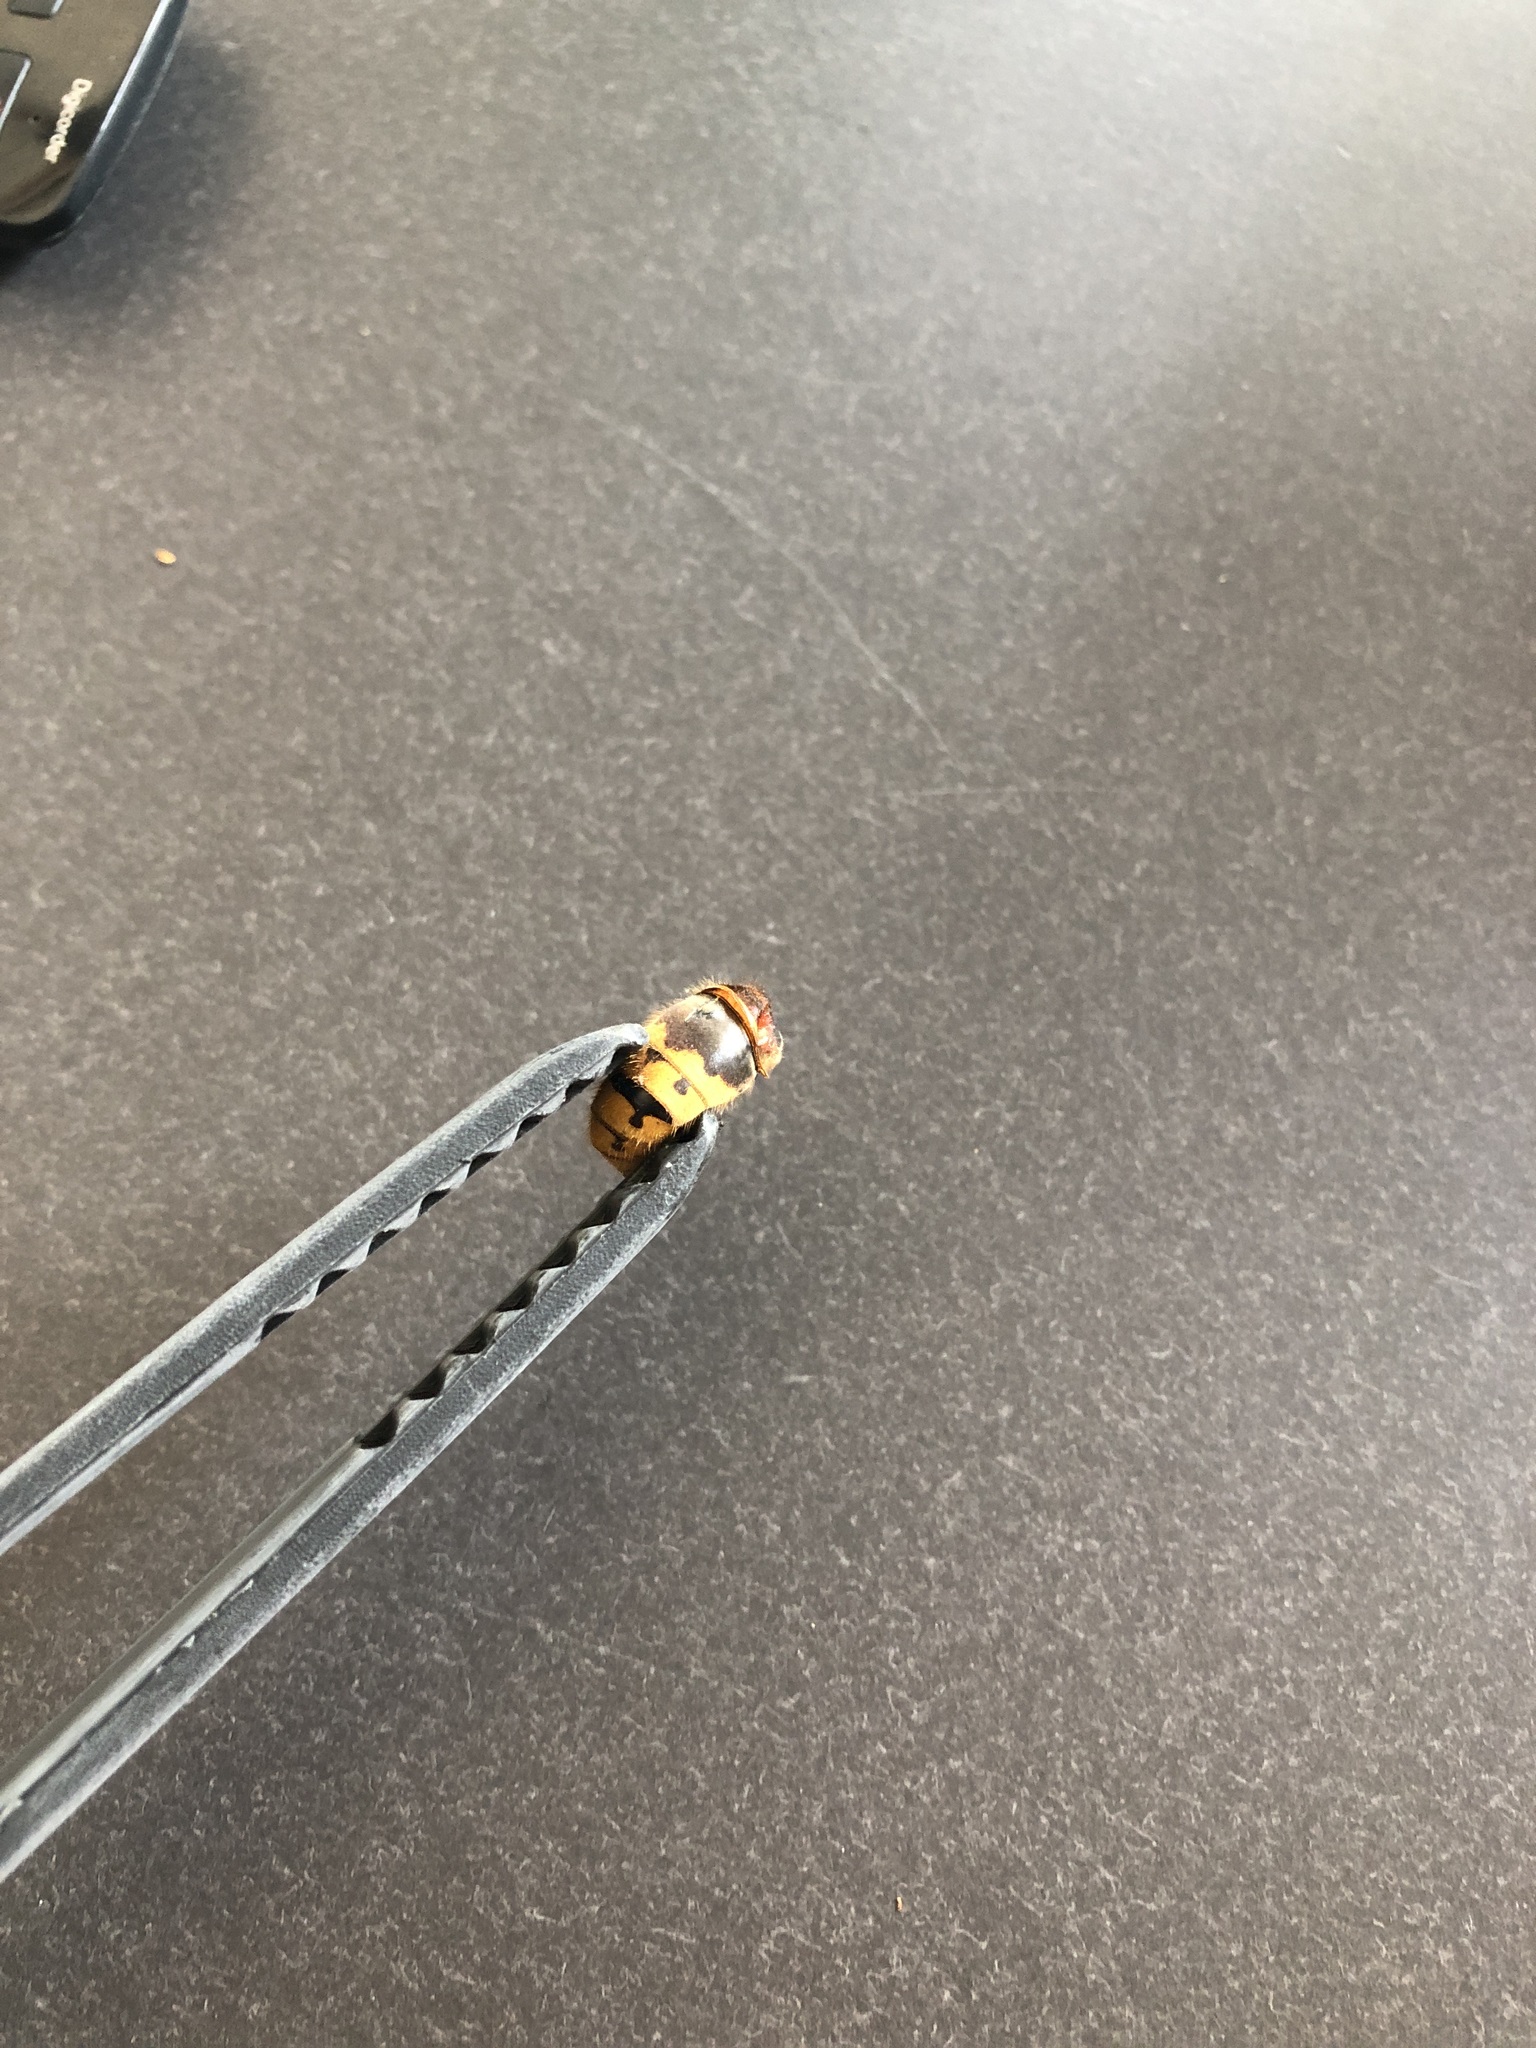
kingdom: Animalia
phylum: Arthropoda
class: Insecta
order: Hymenoptera
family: Vespidae
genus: Vespa
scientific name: Vespa crabro
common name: Hornet
